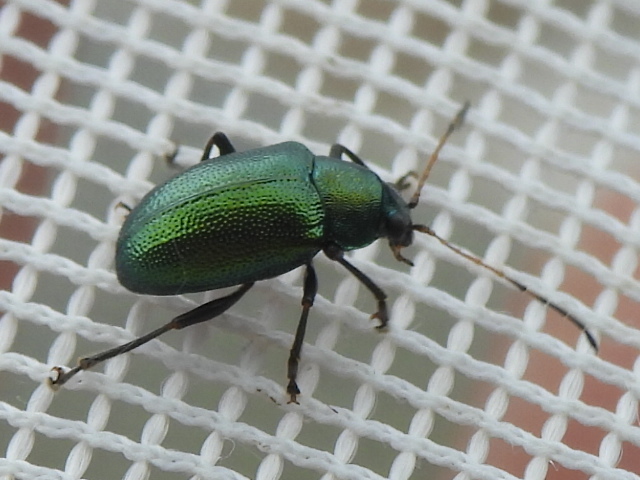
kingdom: Animalia
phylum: Arthropoda
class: Insecta
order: Coleoptera
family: Chrysomelidae
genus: Colaspis
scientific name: Colaspis favosa
